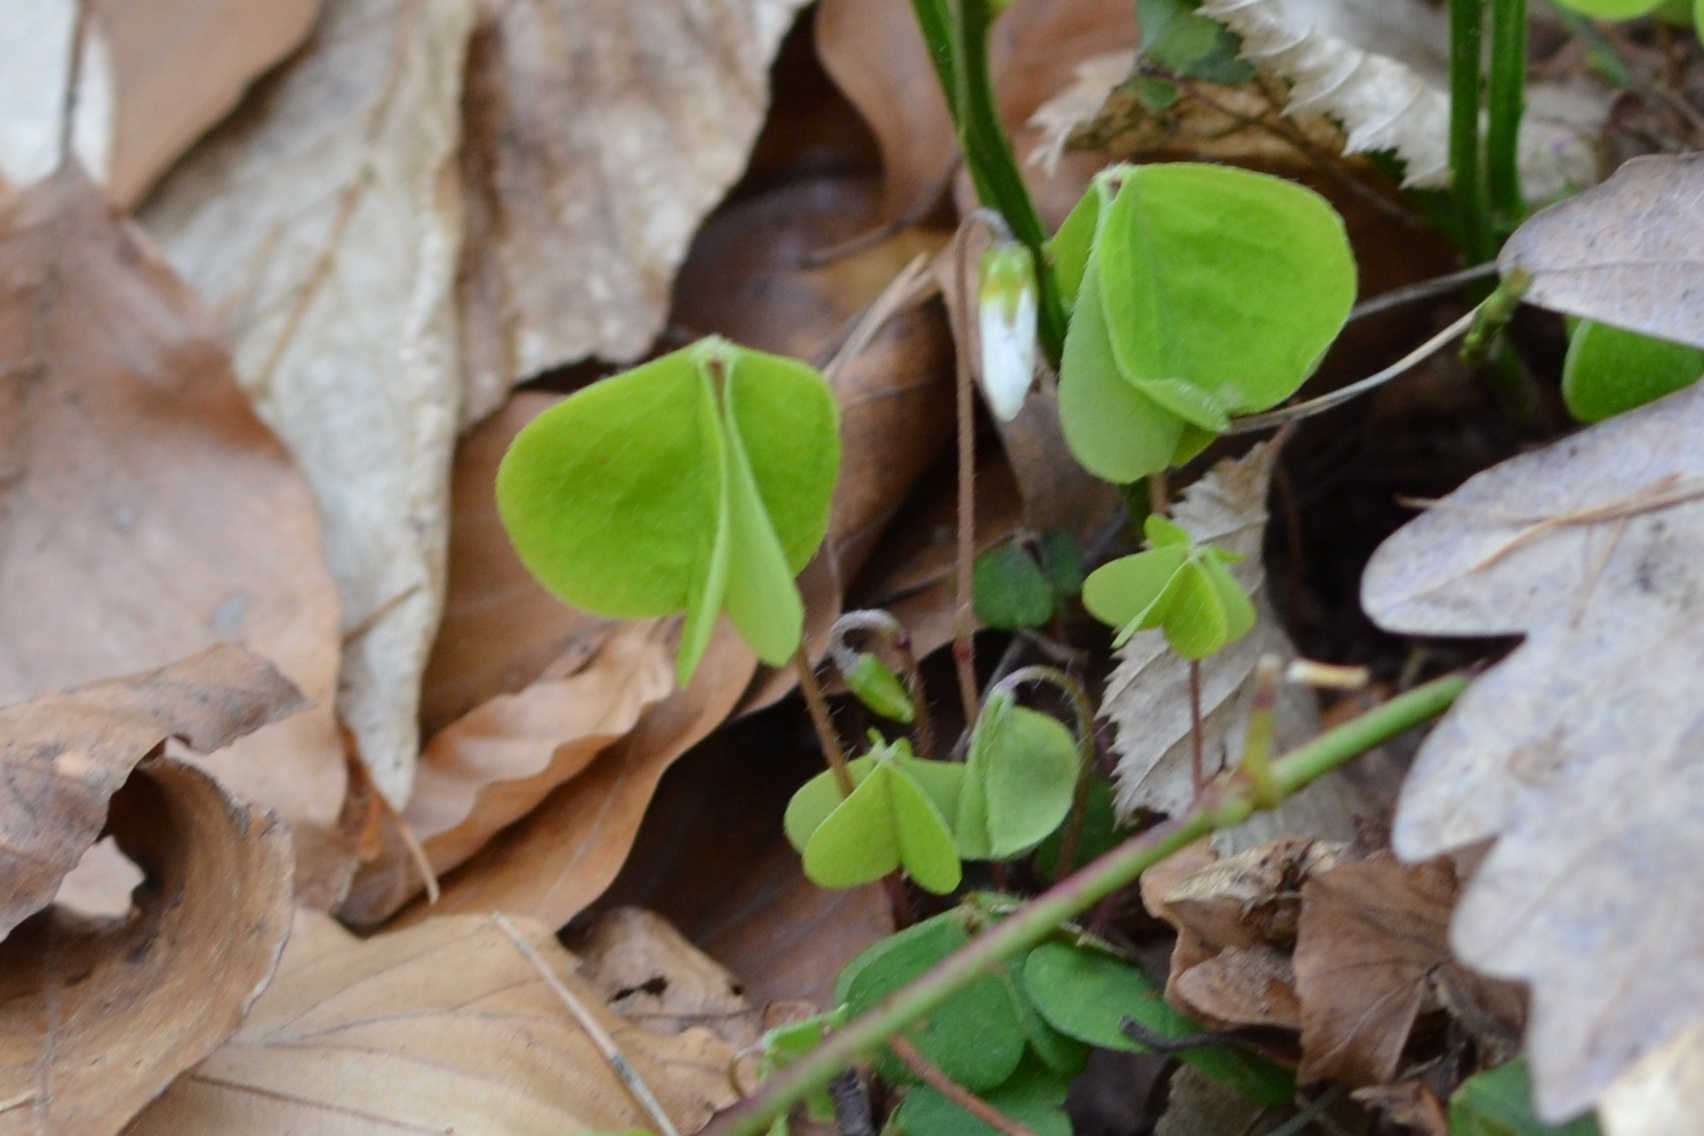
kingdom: Plantae
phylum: Tracheophyta
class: Magnoliopsida
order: Oxalidales
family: Oxalidaceae
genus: Oxalis
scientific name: Oxalis acetosella
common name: Wood-sorrel
